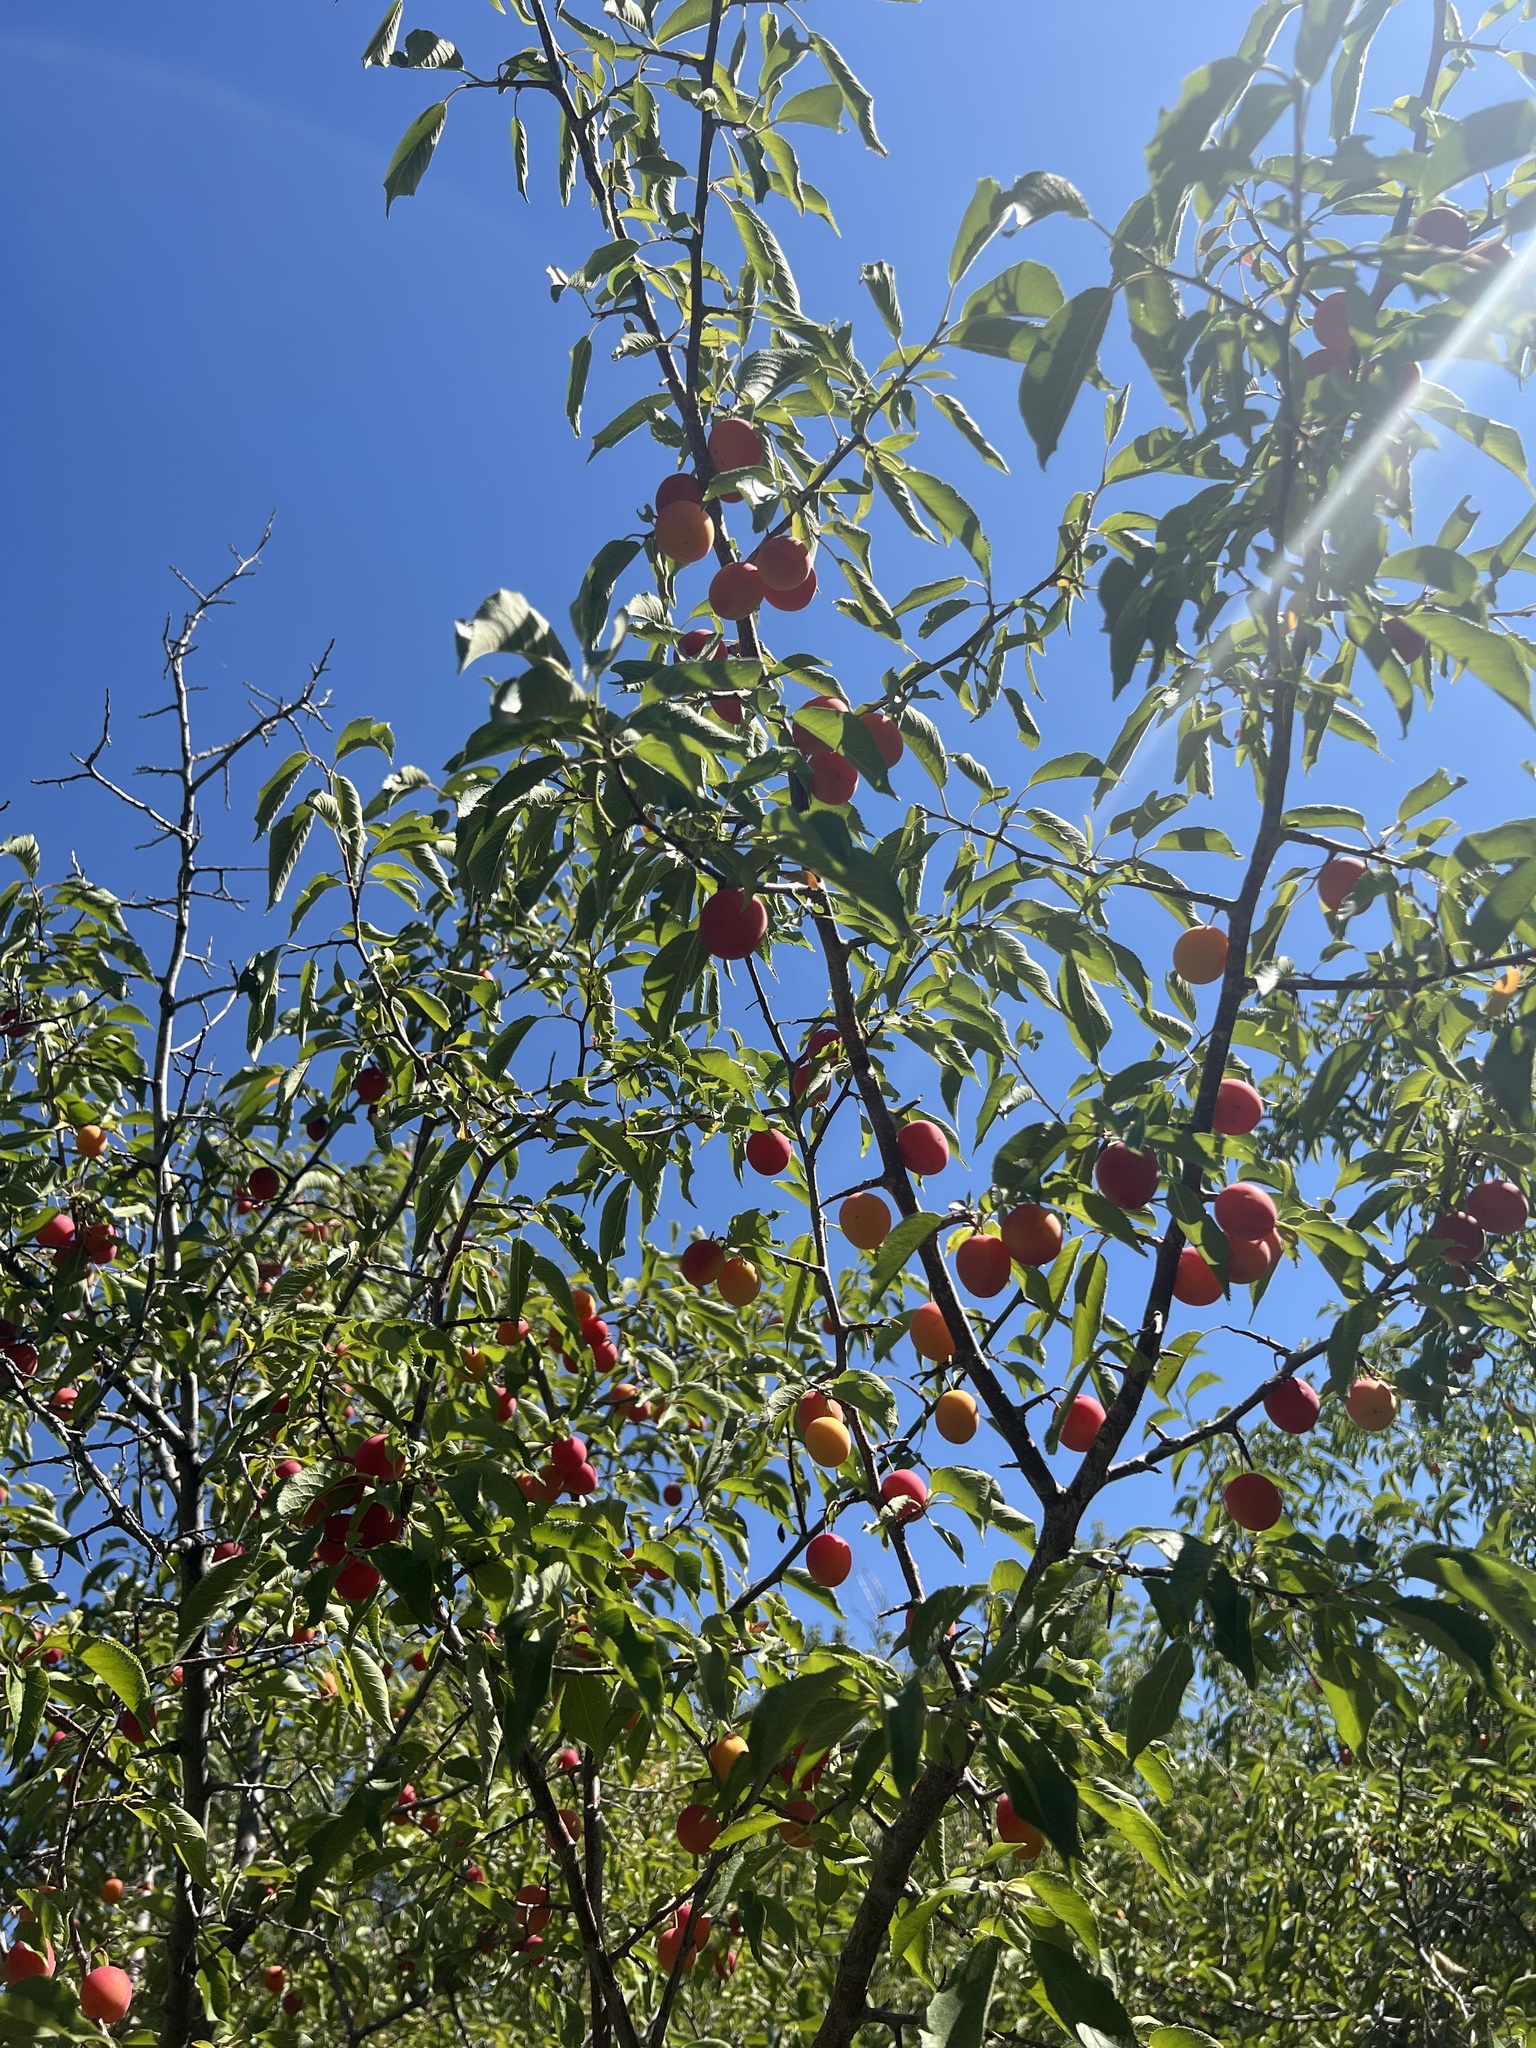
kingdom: Plantae
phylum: Tracheophyta
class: Magnoliopsida
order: Rosales
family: Rosaceae
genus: Prunus
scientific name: Prunus americana
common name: American plum
